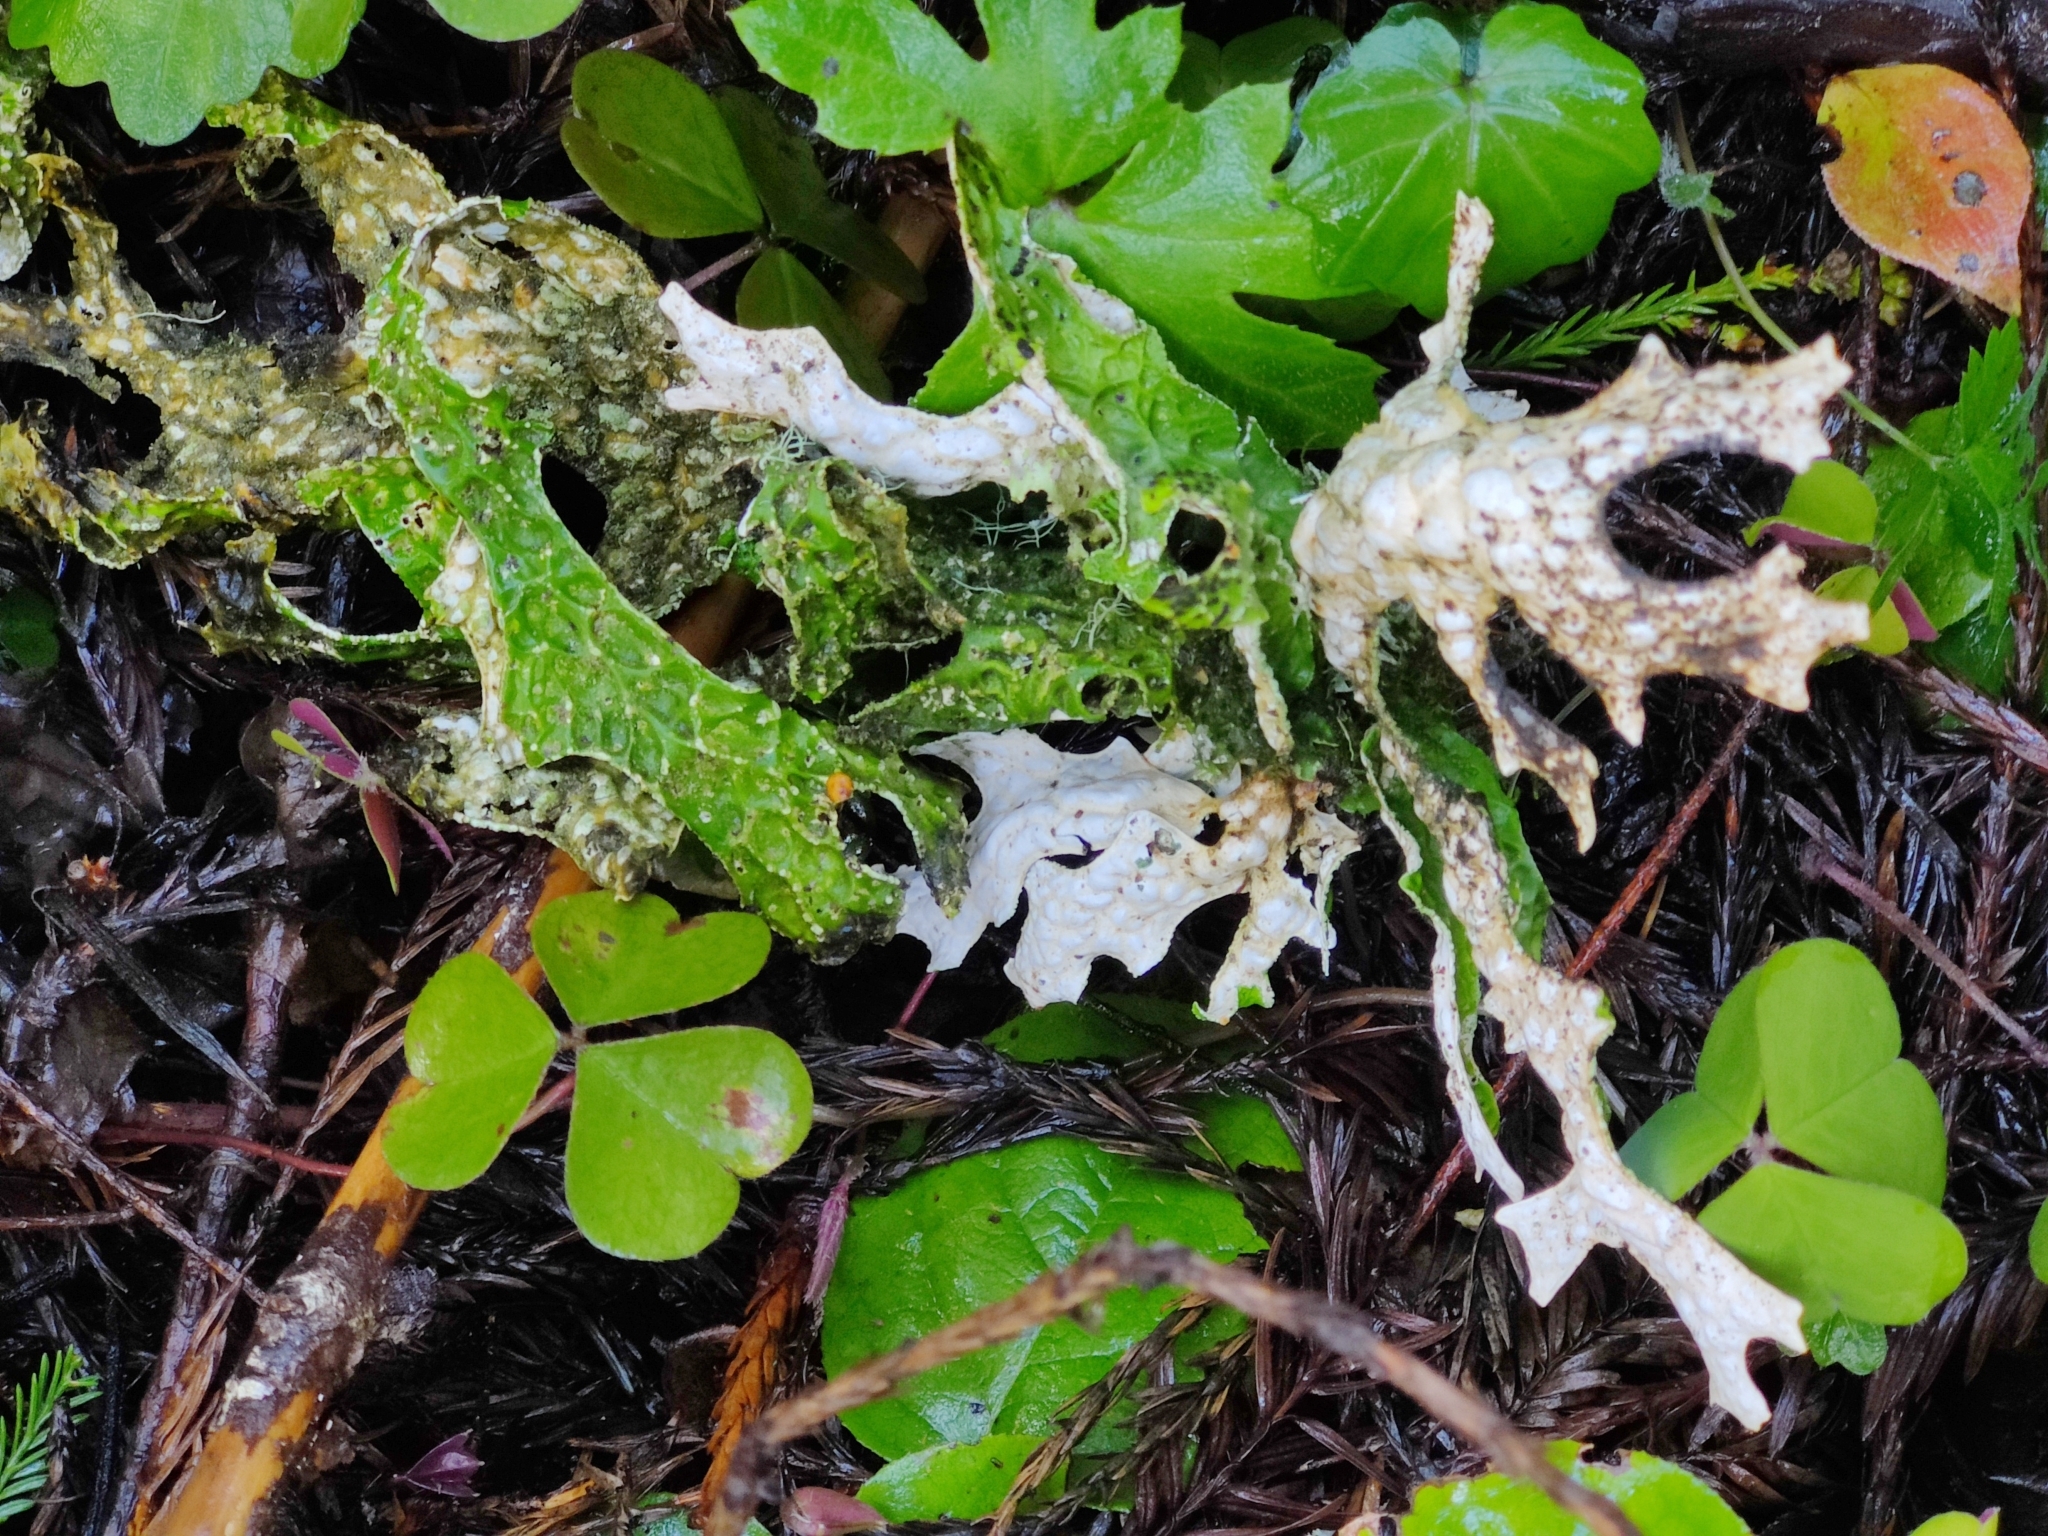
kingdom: Fungi
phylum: Ascomycota
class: Lecanoromycetes
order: Peltigerales
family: Lobariaceae
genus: Lobaria
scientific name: Lobaria pulmonaria
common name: Lungwort
